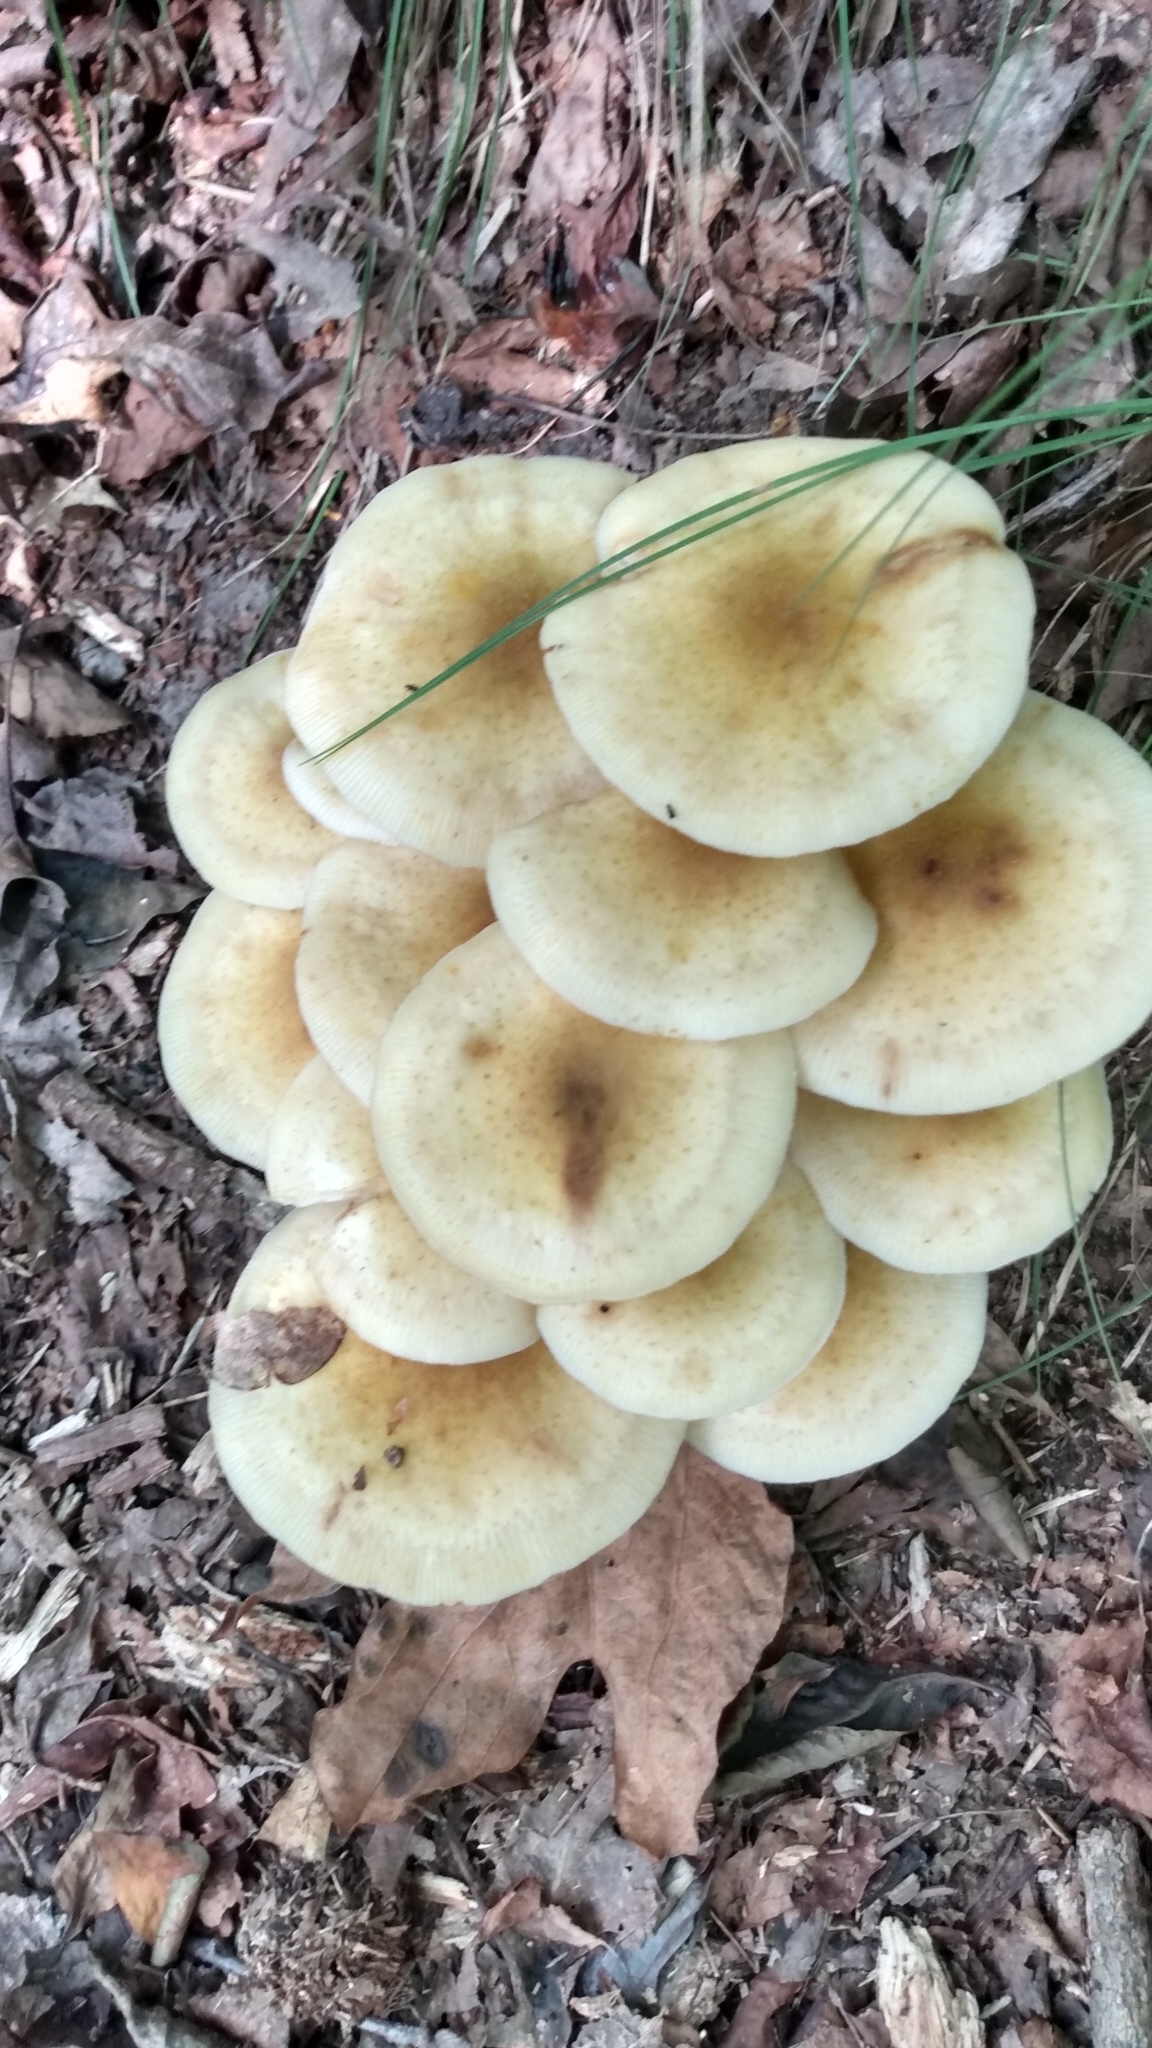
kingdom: Fungi
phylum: Basidiomycota
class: Agaricomycetes
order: Agaricales
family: Physalacriaceae
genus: Desarmillaria
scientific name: Desarmillaria caespitosa
